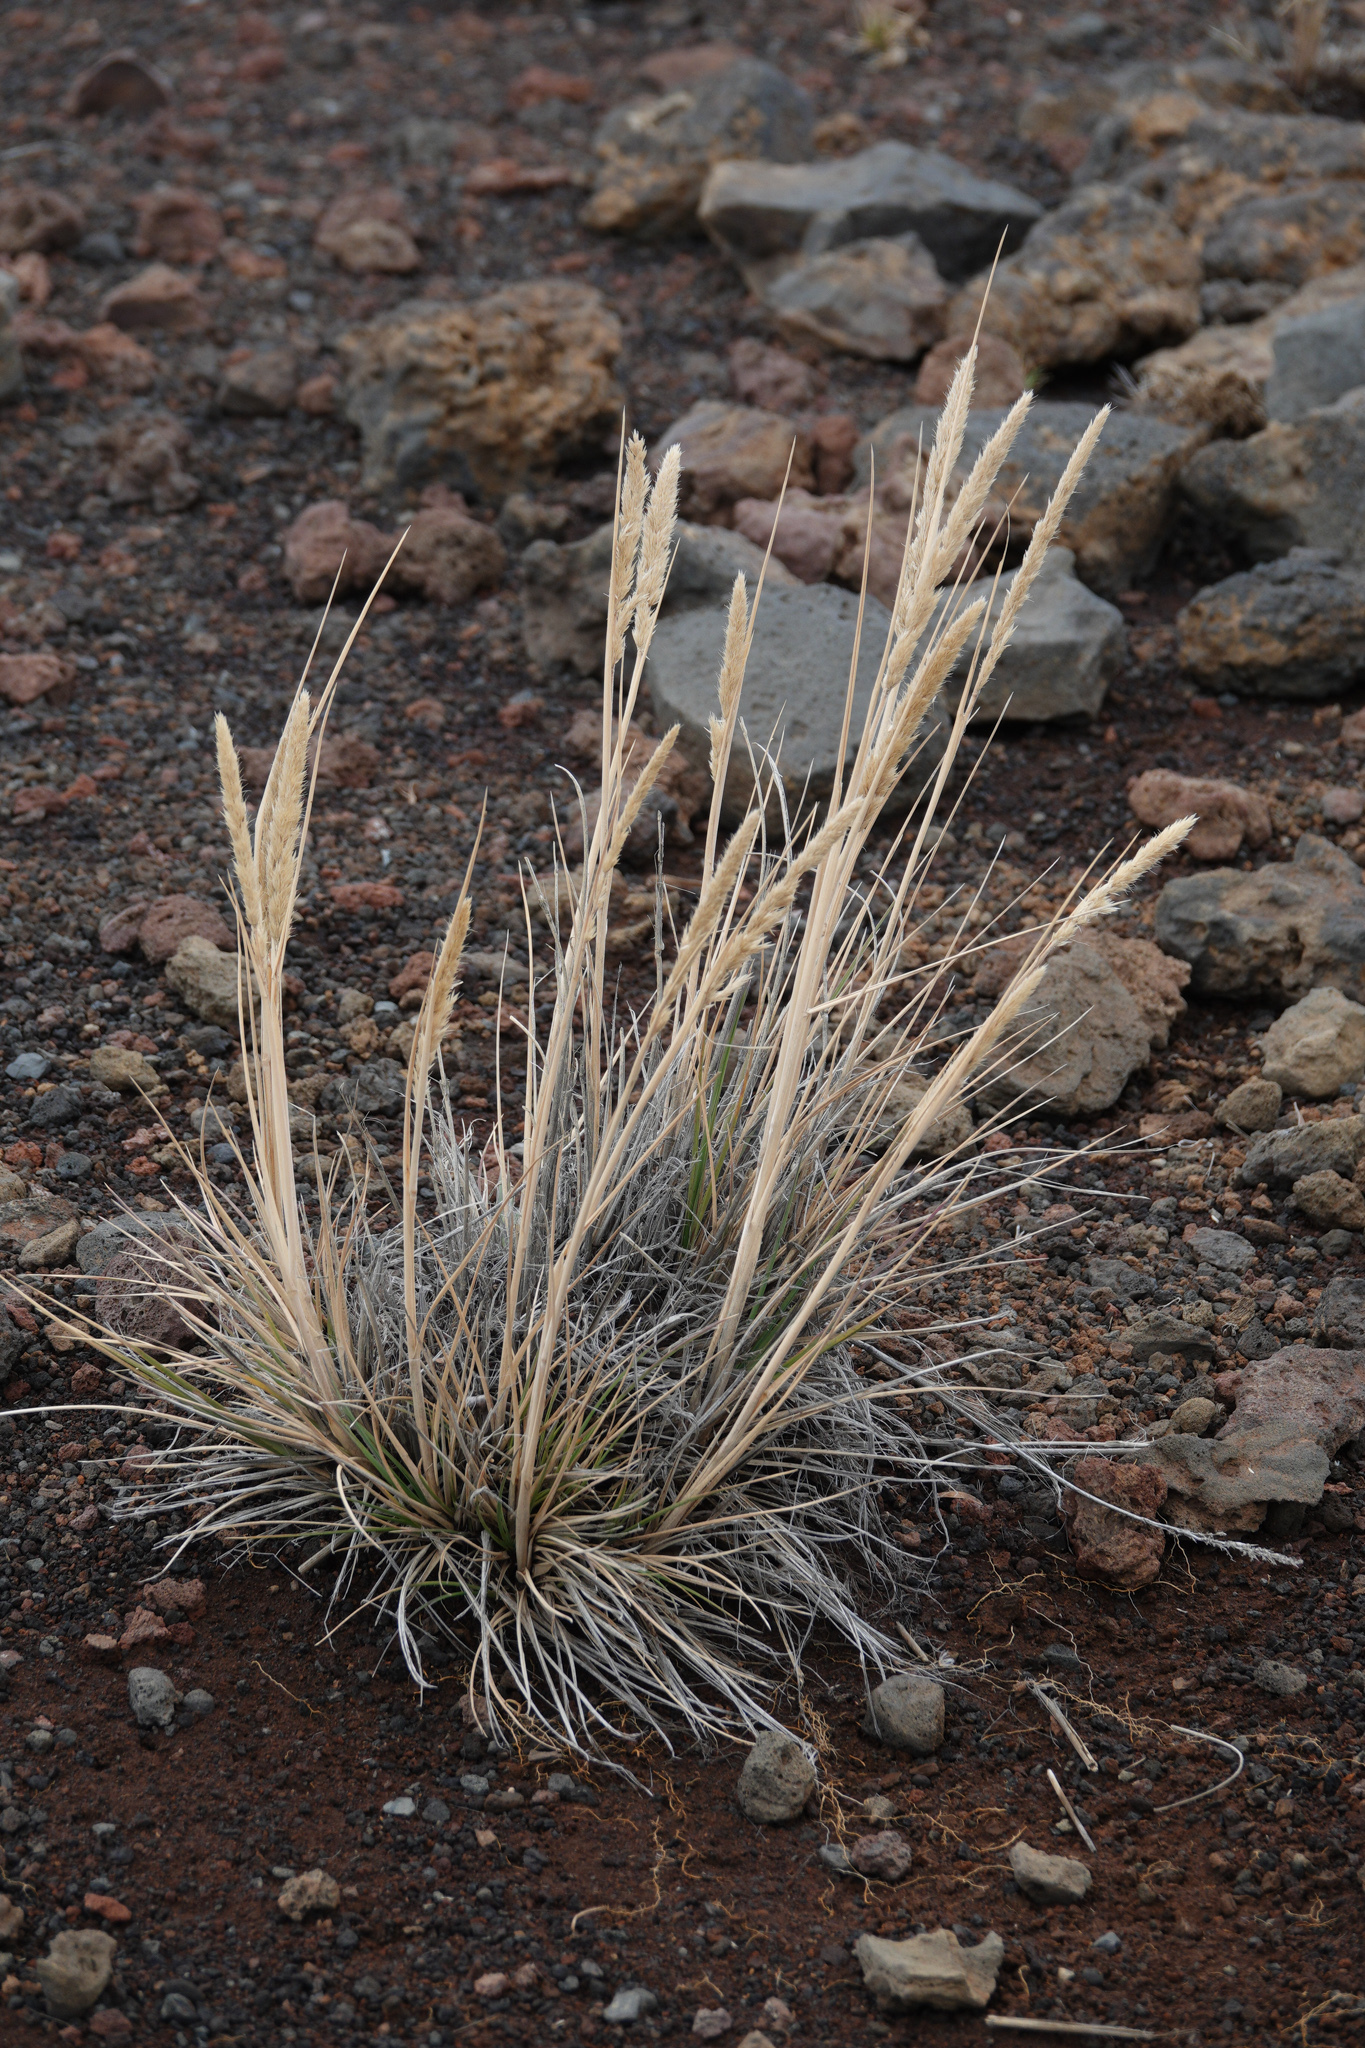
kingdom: Plantae
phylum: Tracheophyta
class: Liliopsida
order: Poales
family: Poaceae
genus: Trisetum
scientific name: Trisetum glomeratum
